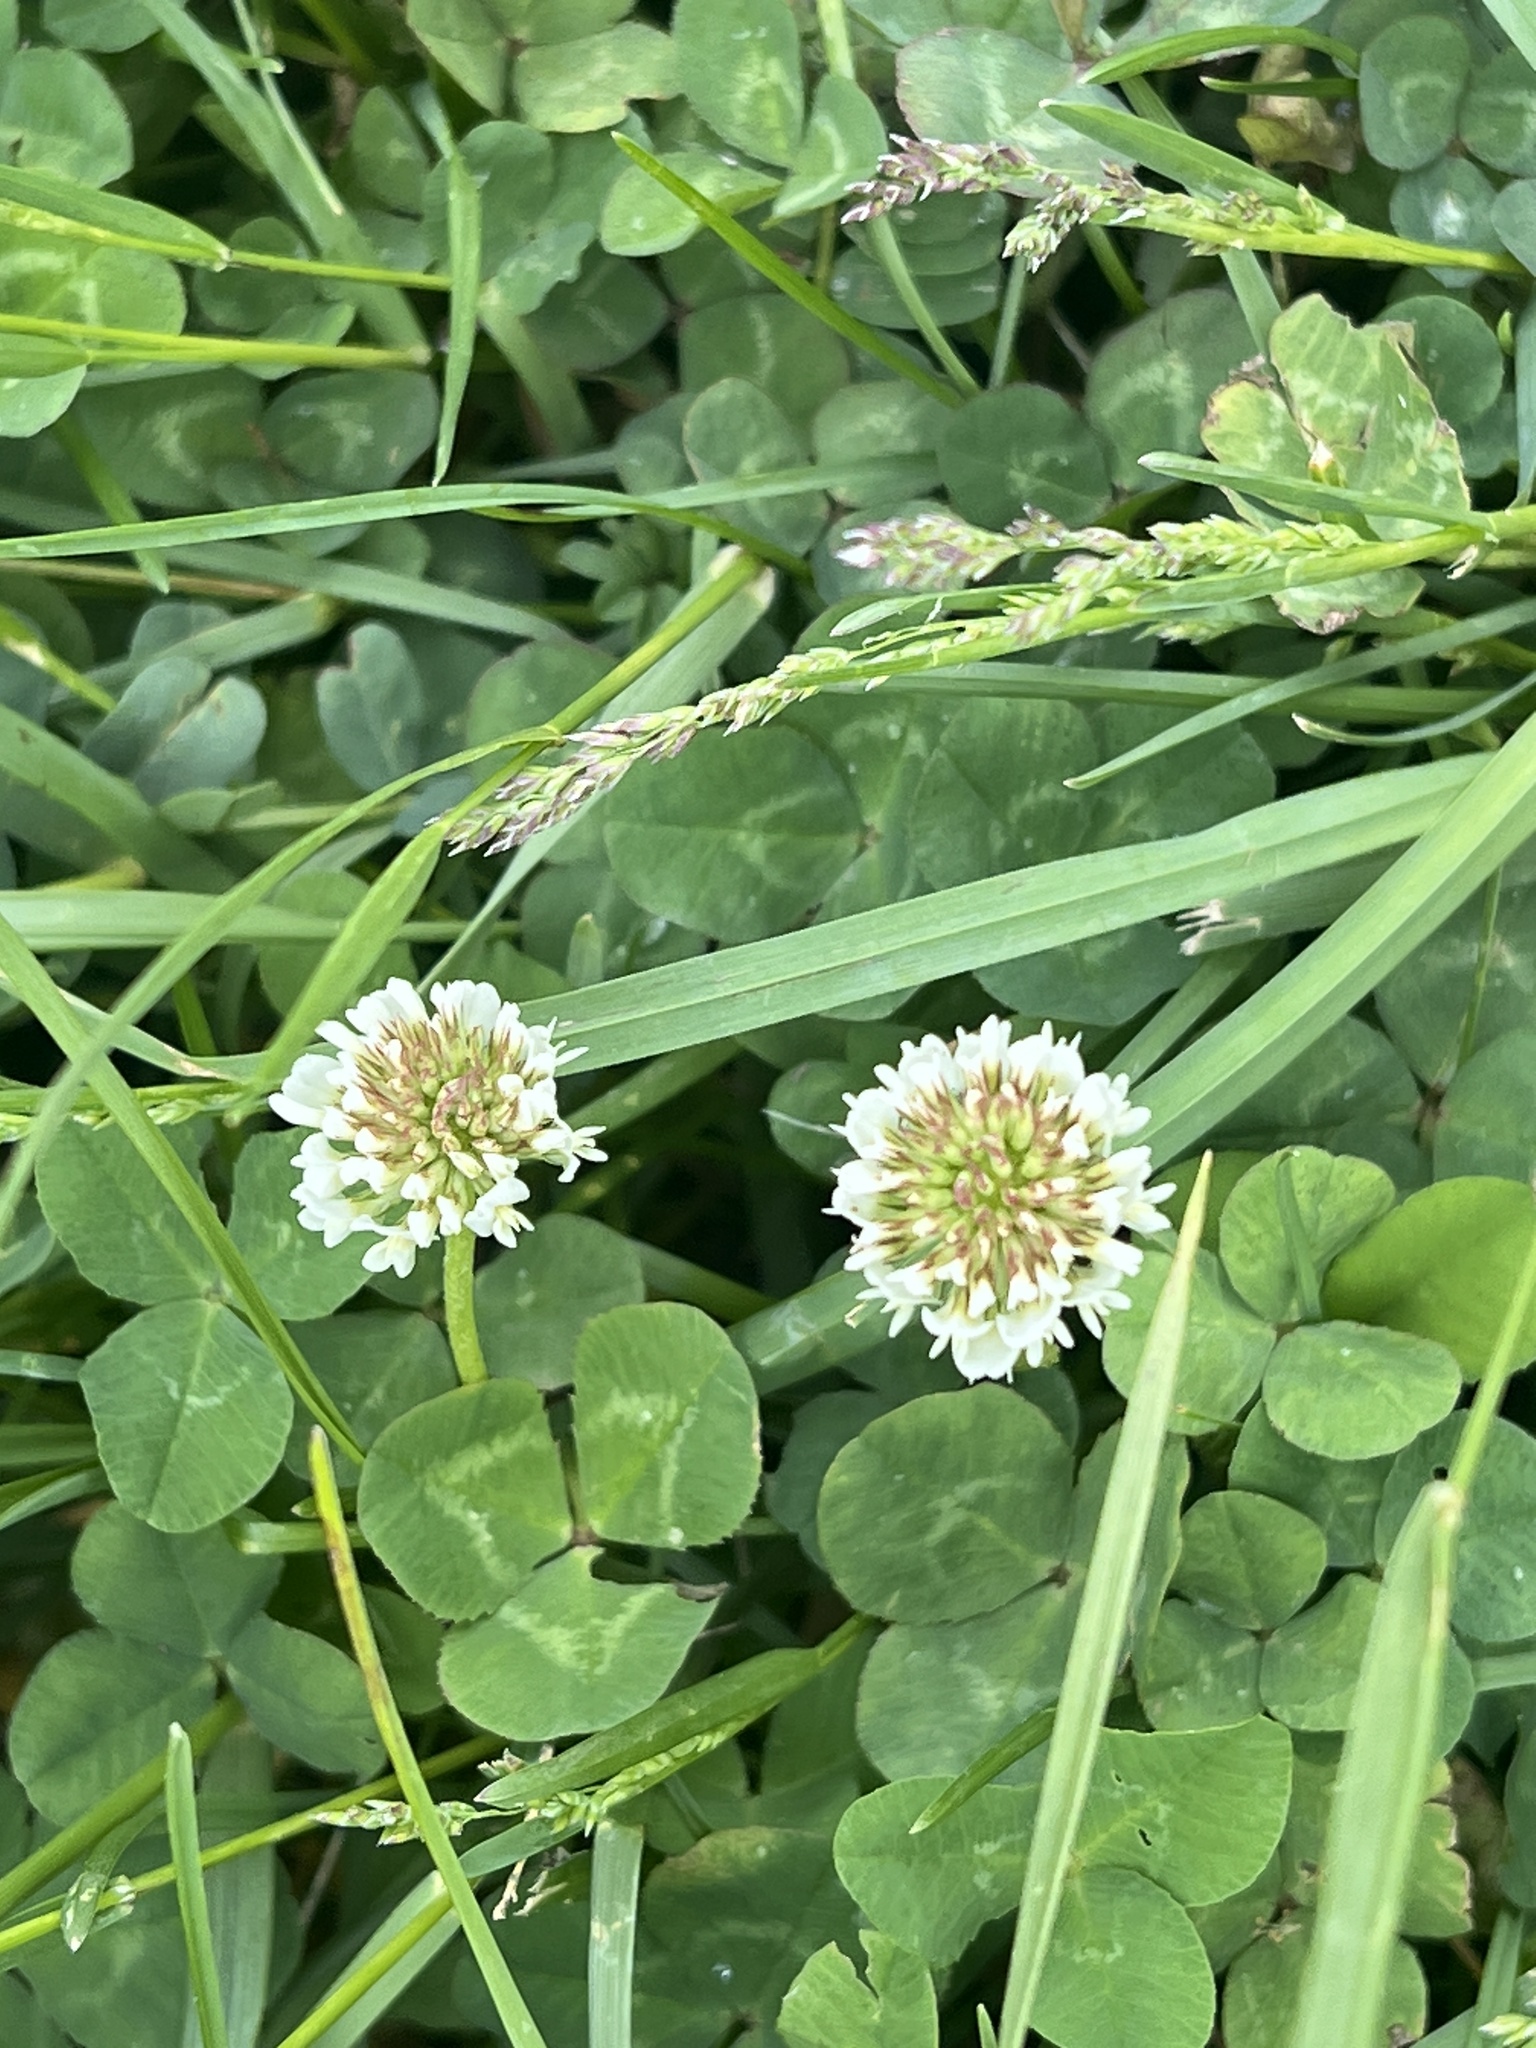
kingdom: Plantae
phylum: Tracheophyta
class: Magnoliopsida
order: Fabales
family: Fabaceae
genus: Trifolium
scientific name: Trifolium repens
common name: White clover
